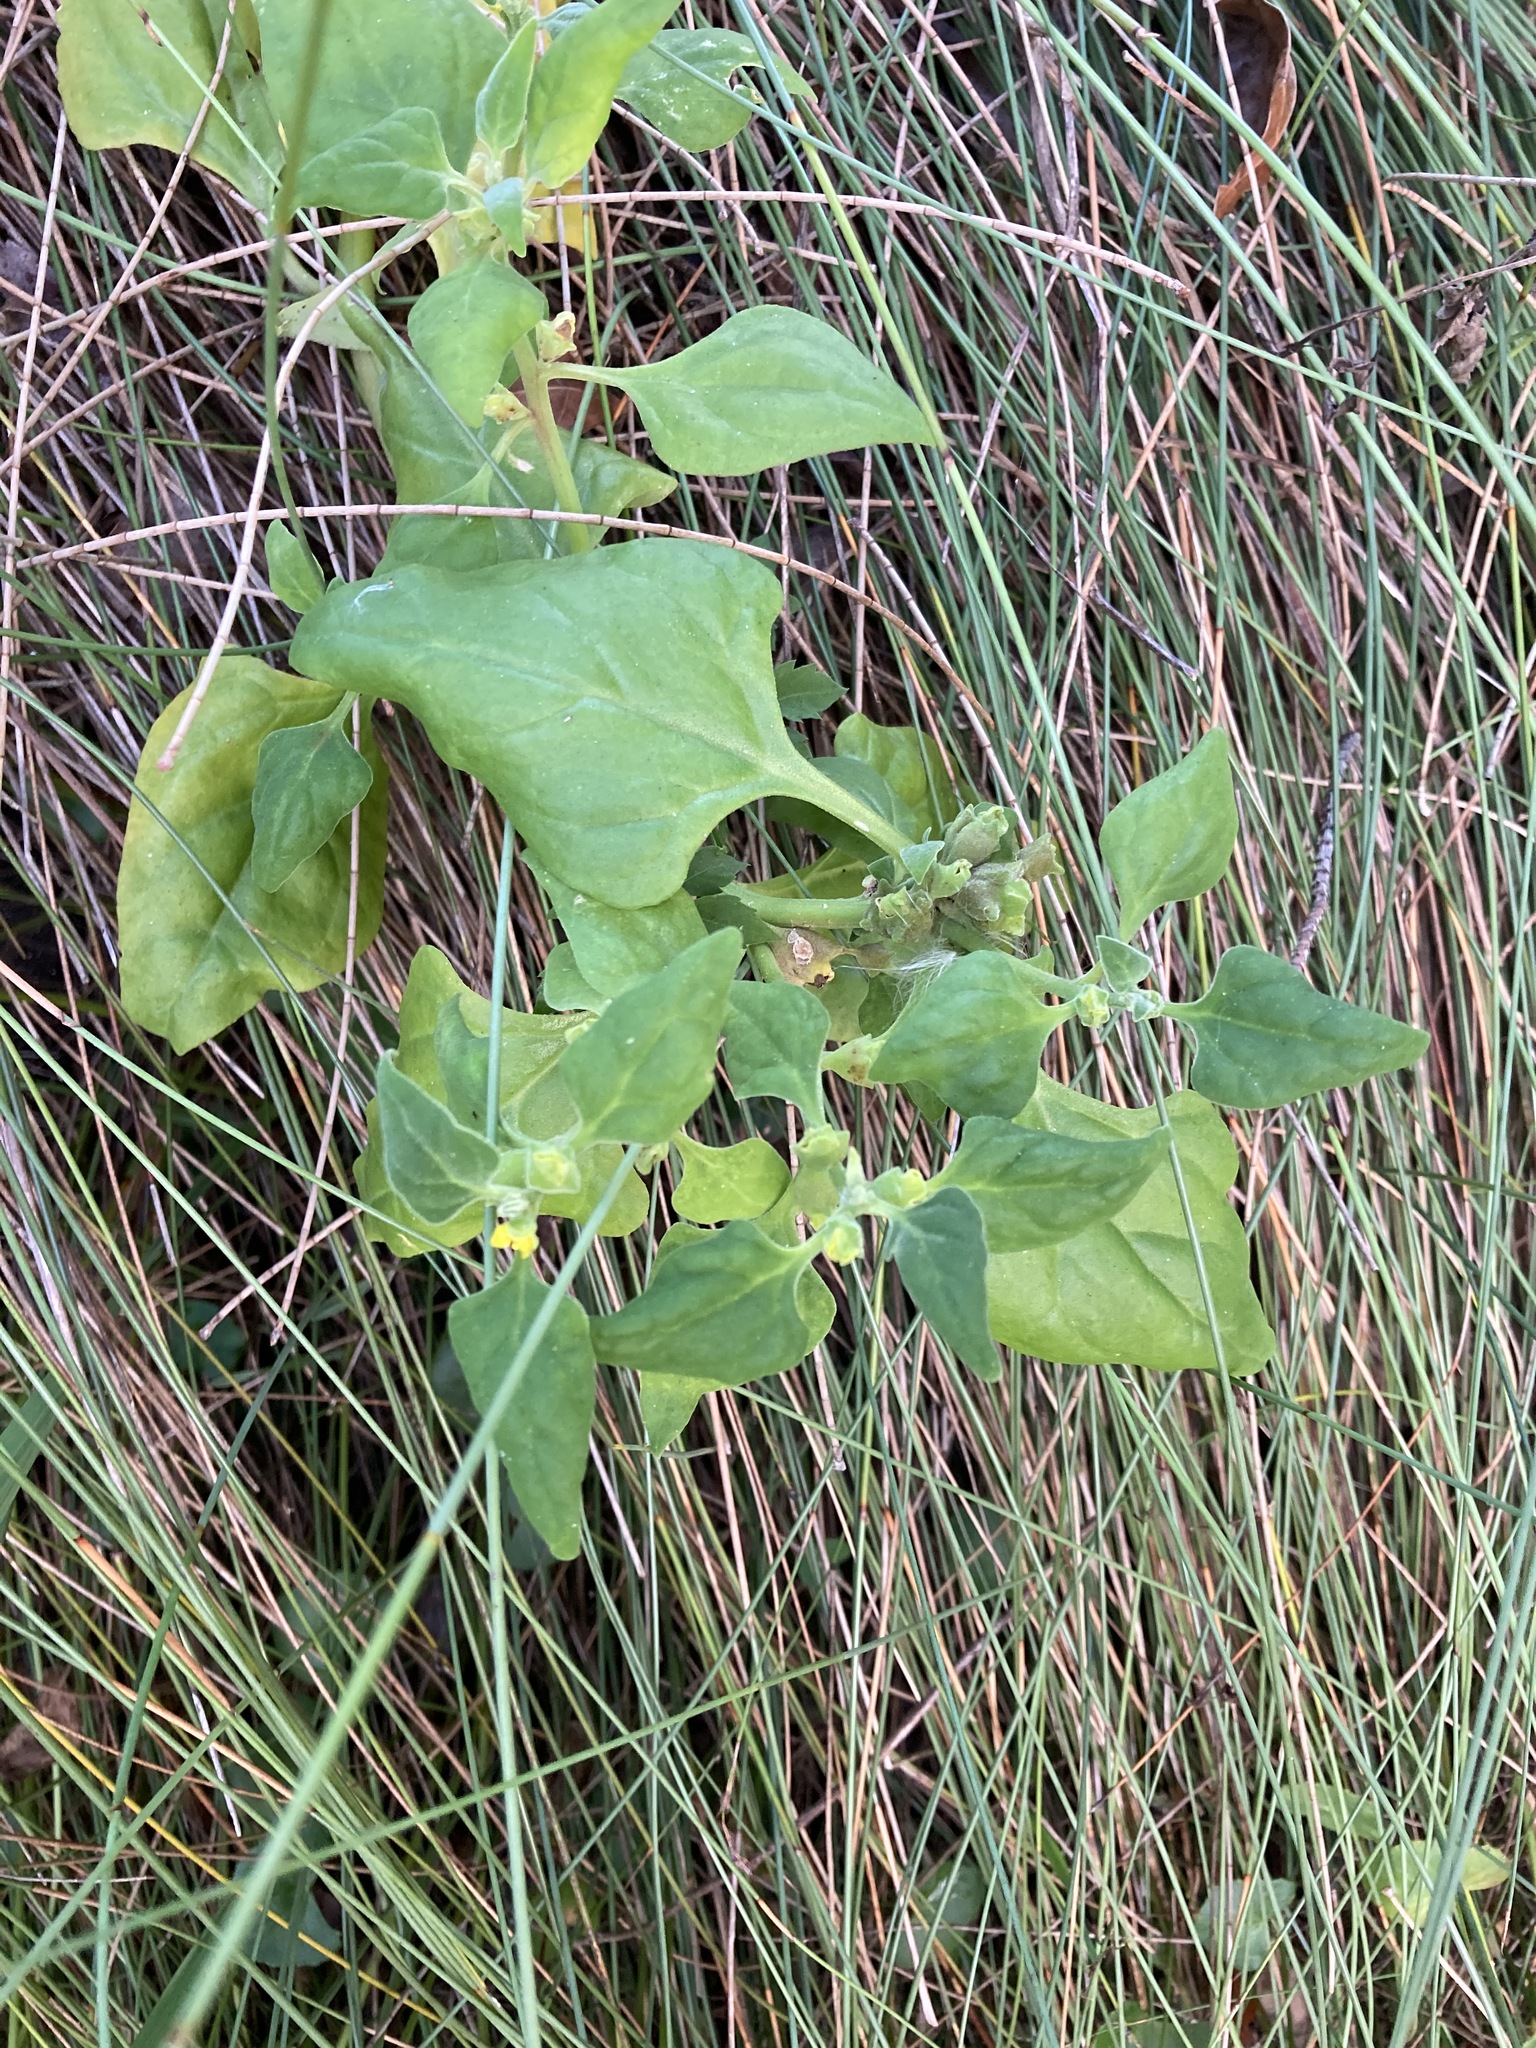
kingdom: Plantae
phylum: Tracheophyta
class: Magnoliopsida
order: Caryophyllales
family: Aizoaceae
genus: Tetragonia
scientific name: Tetragonia tetragonoides
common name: New zealand-spinach
